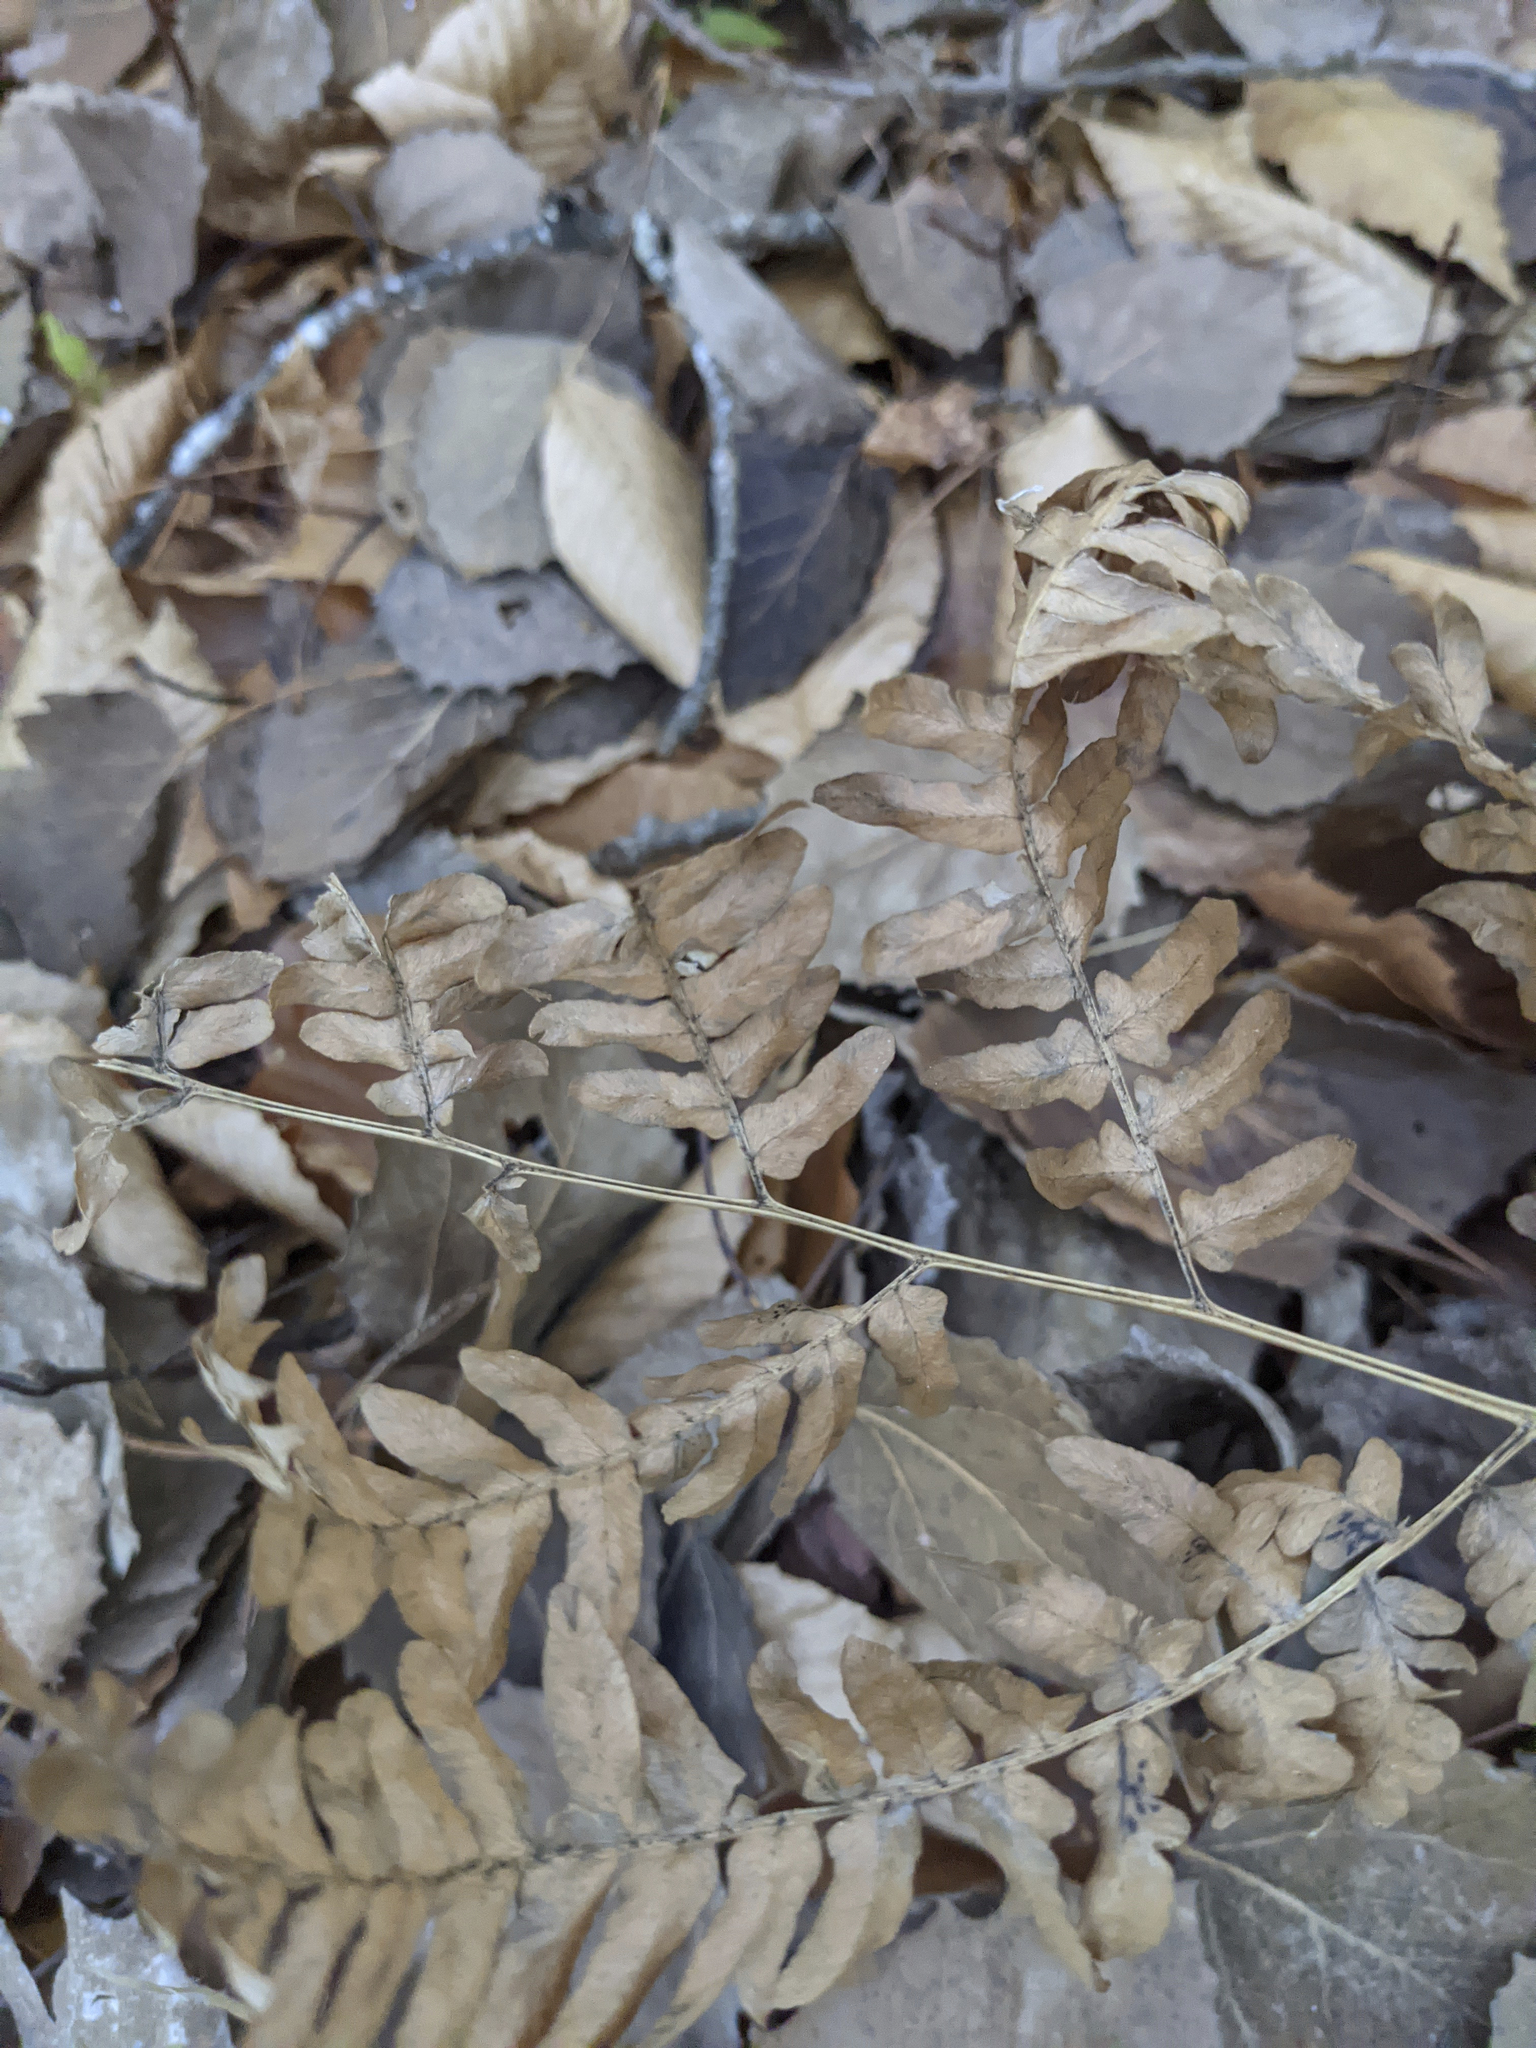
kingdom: Plantae
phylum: Tracheophyta
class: Polypodiopsida
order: Polypodiales
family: Dennstaedtiaceae
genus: Pteridium
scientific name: Pteridium aquilinum
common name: Bracken
